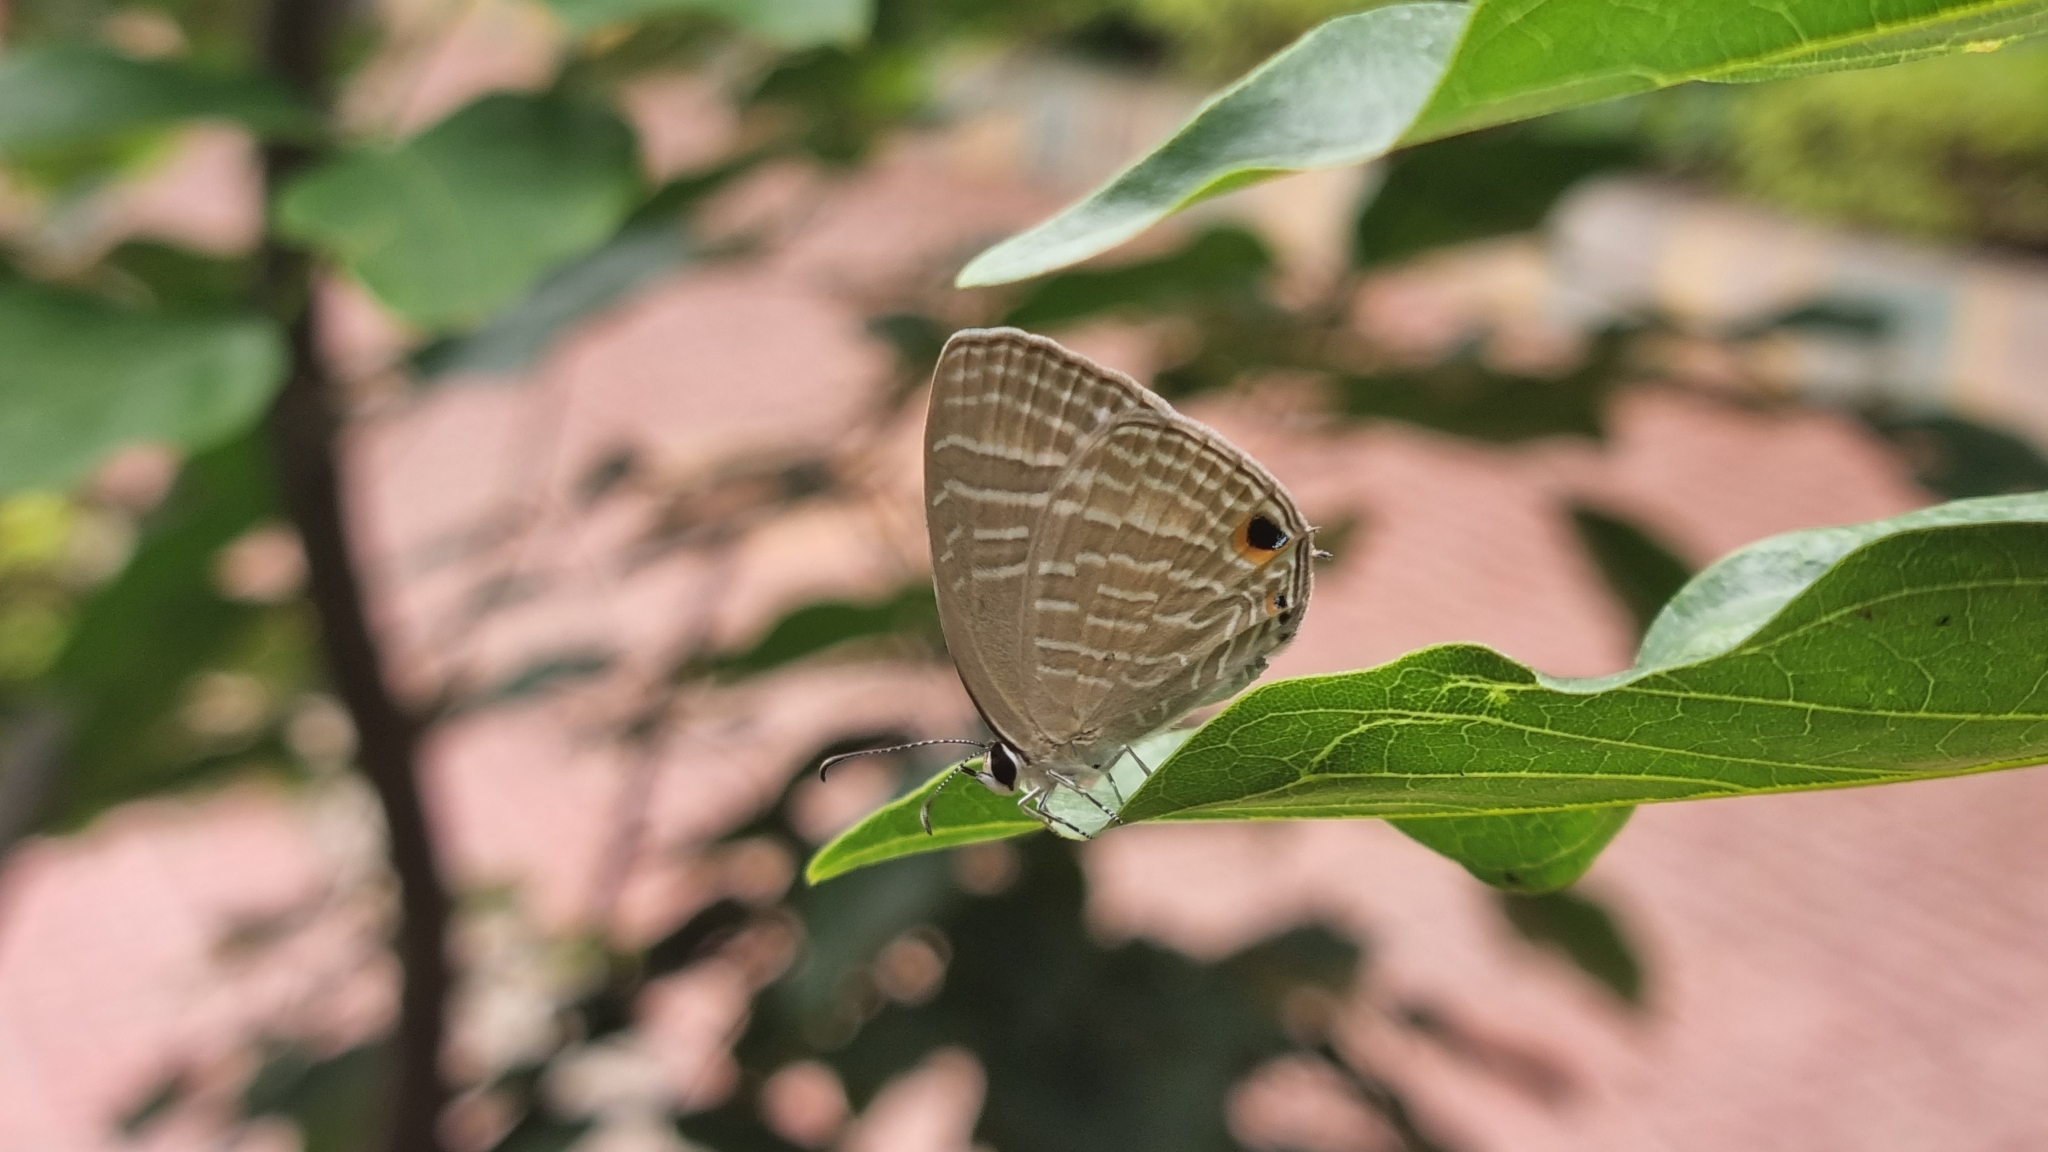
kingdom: Animalia
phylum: Arthropoda
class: Insecta
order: Lepidoptera
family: Lycaenidae
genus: Jamides
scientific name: Jamides celeno
